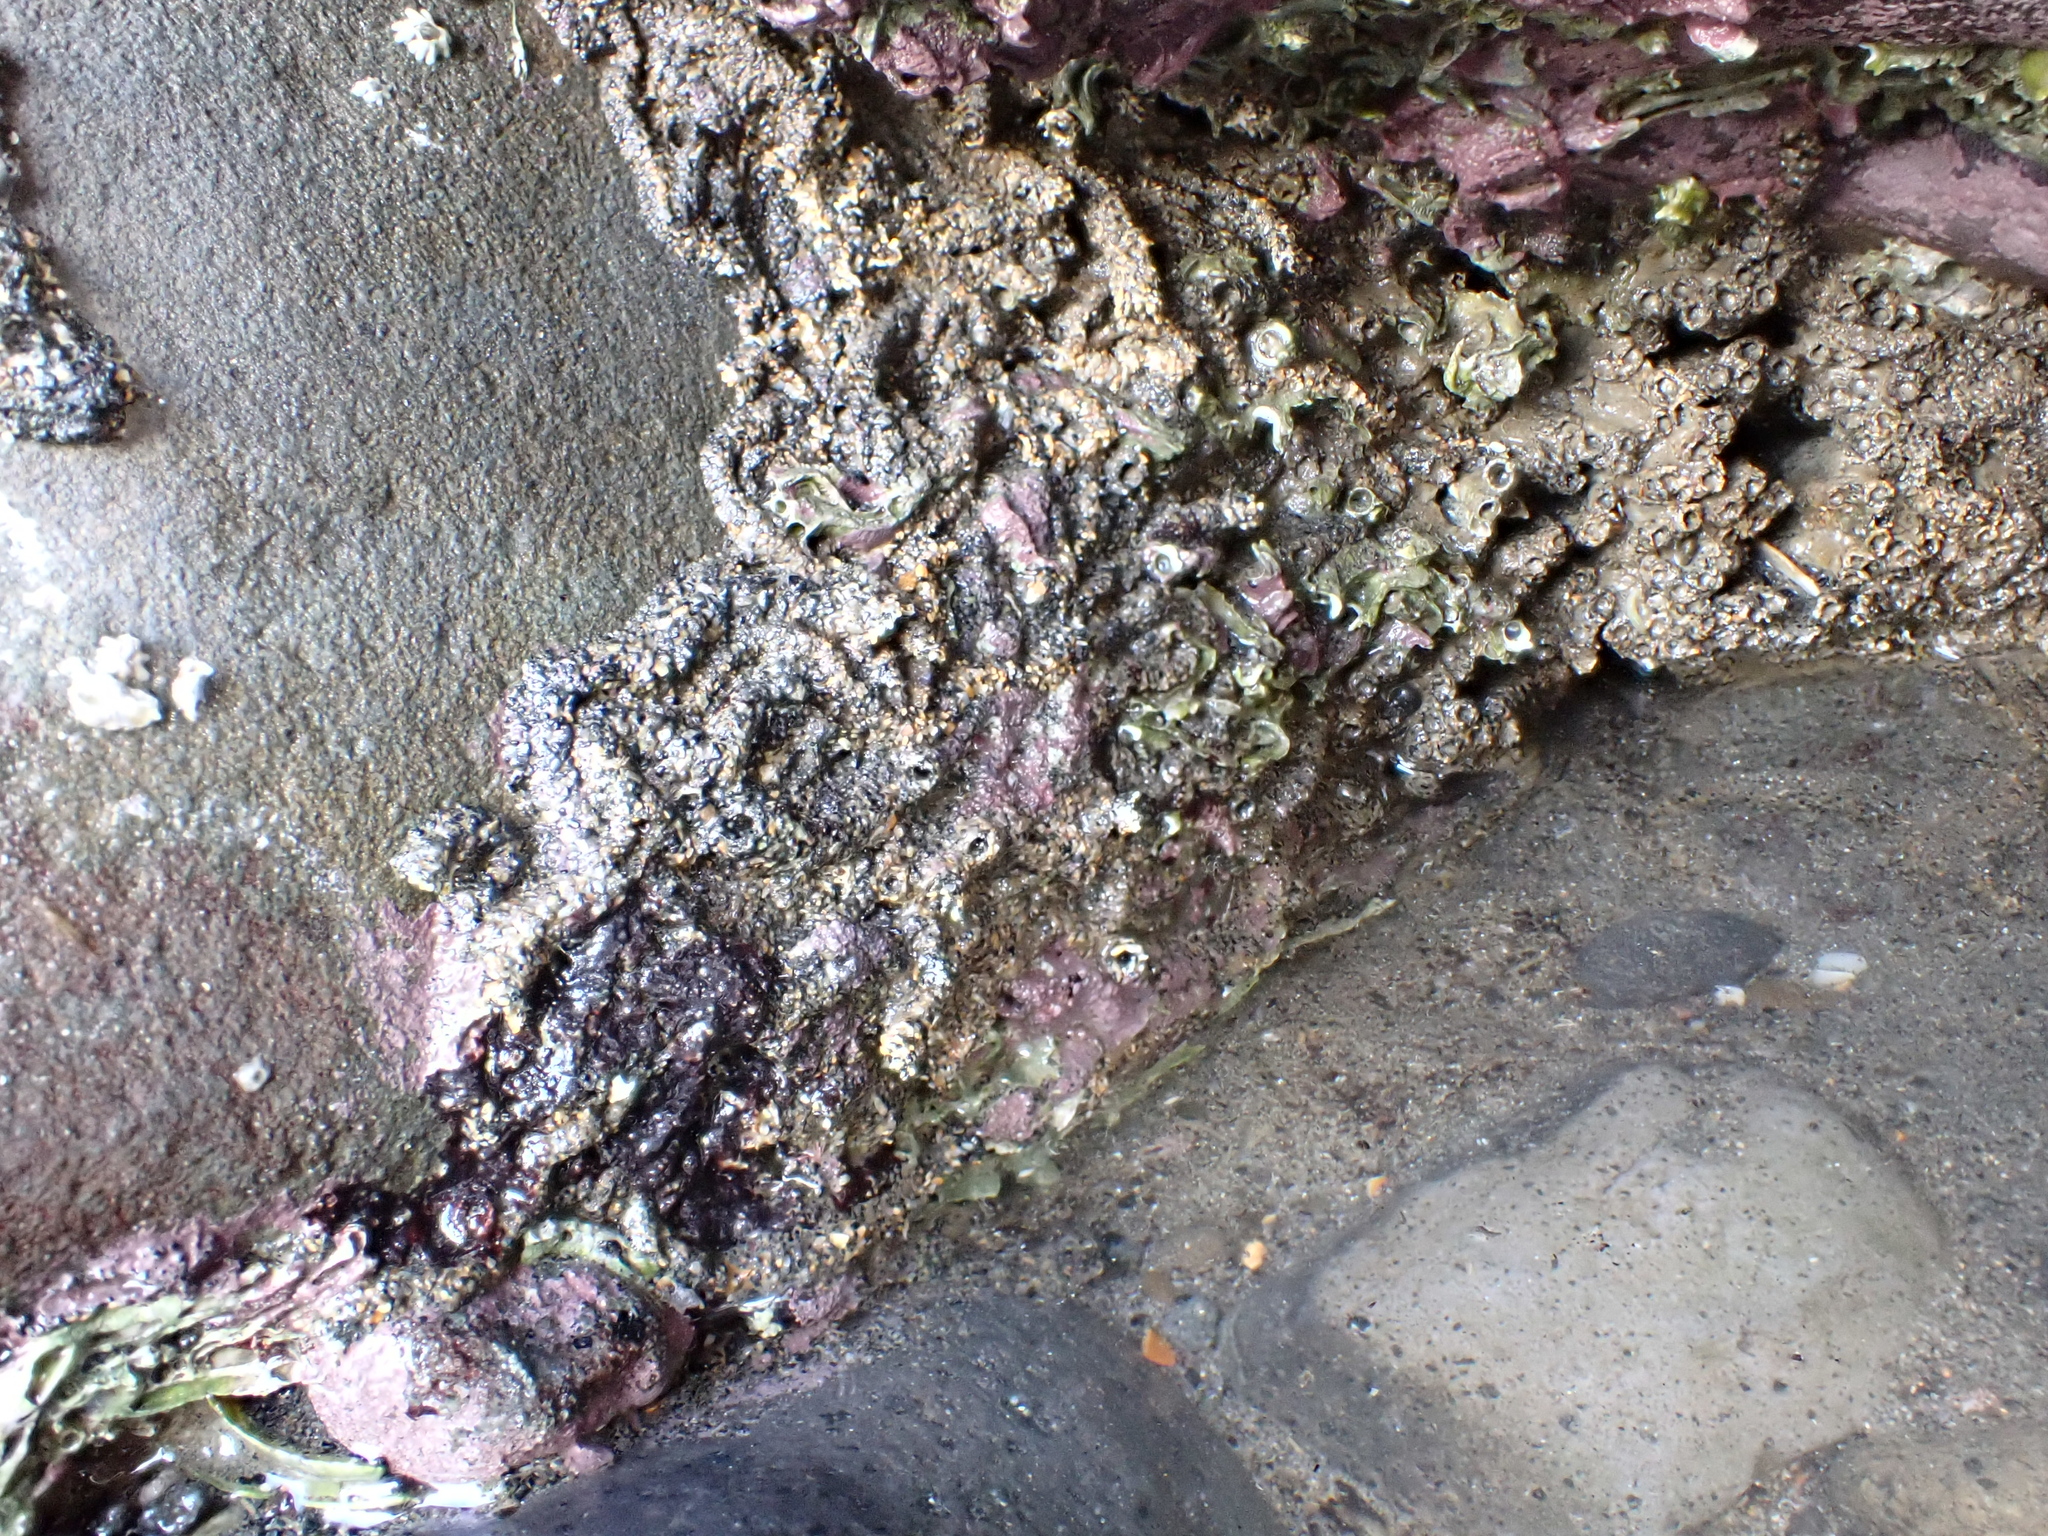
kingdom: Animalia
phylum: Annelida
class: Polychaeta
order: Sabellida
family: Sabellariidae
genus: Neosabellaria
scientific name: Neosabellaria kaiparaensis
